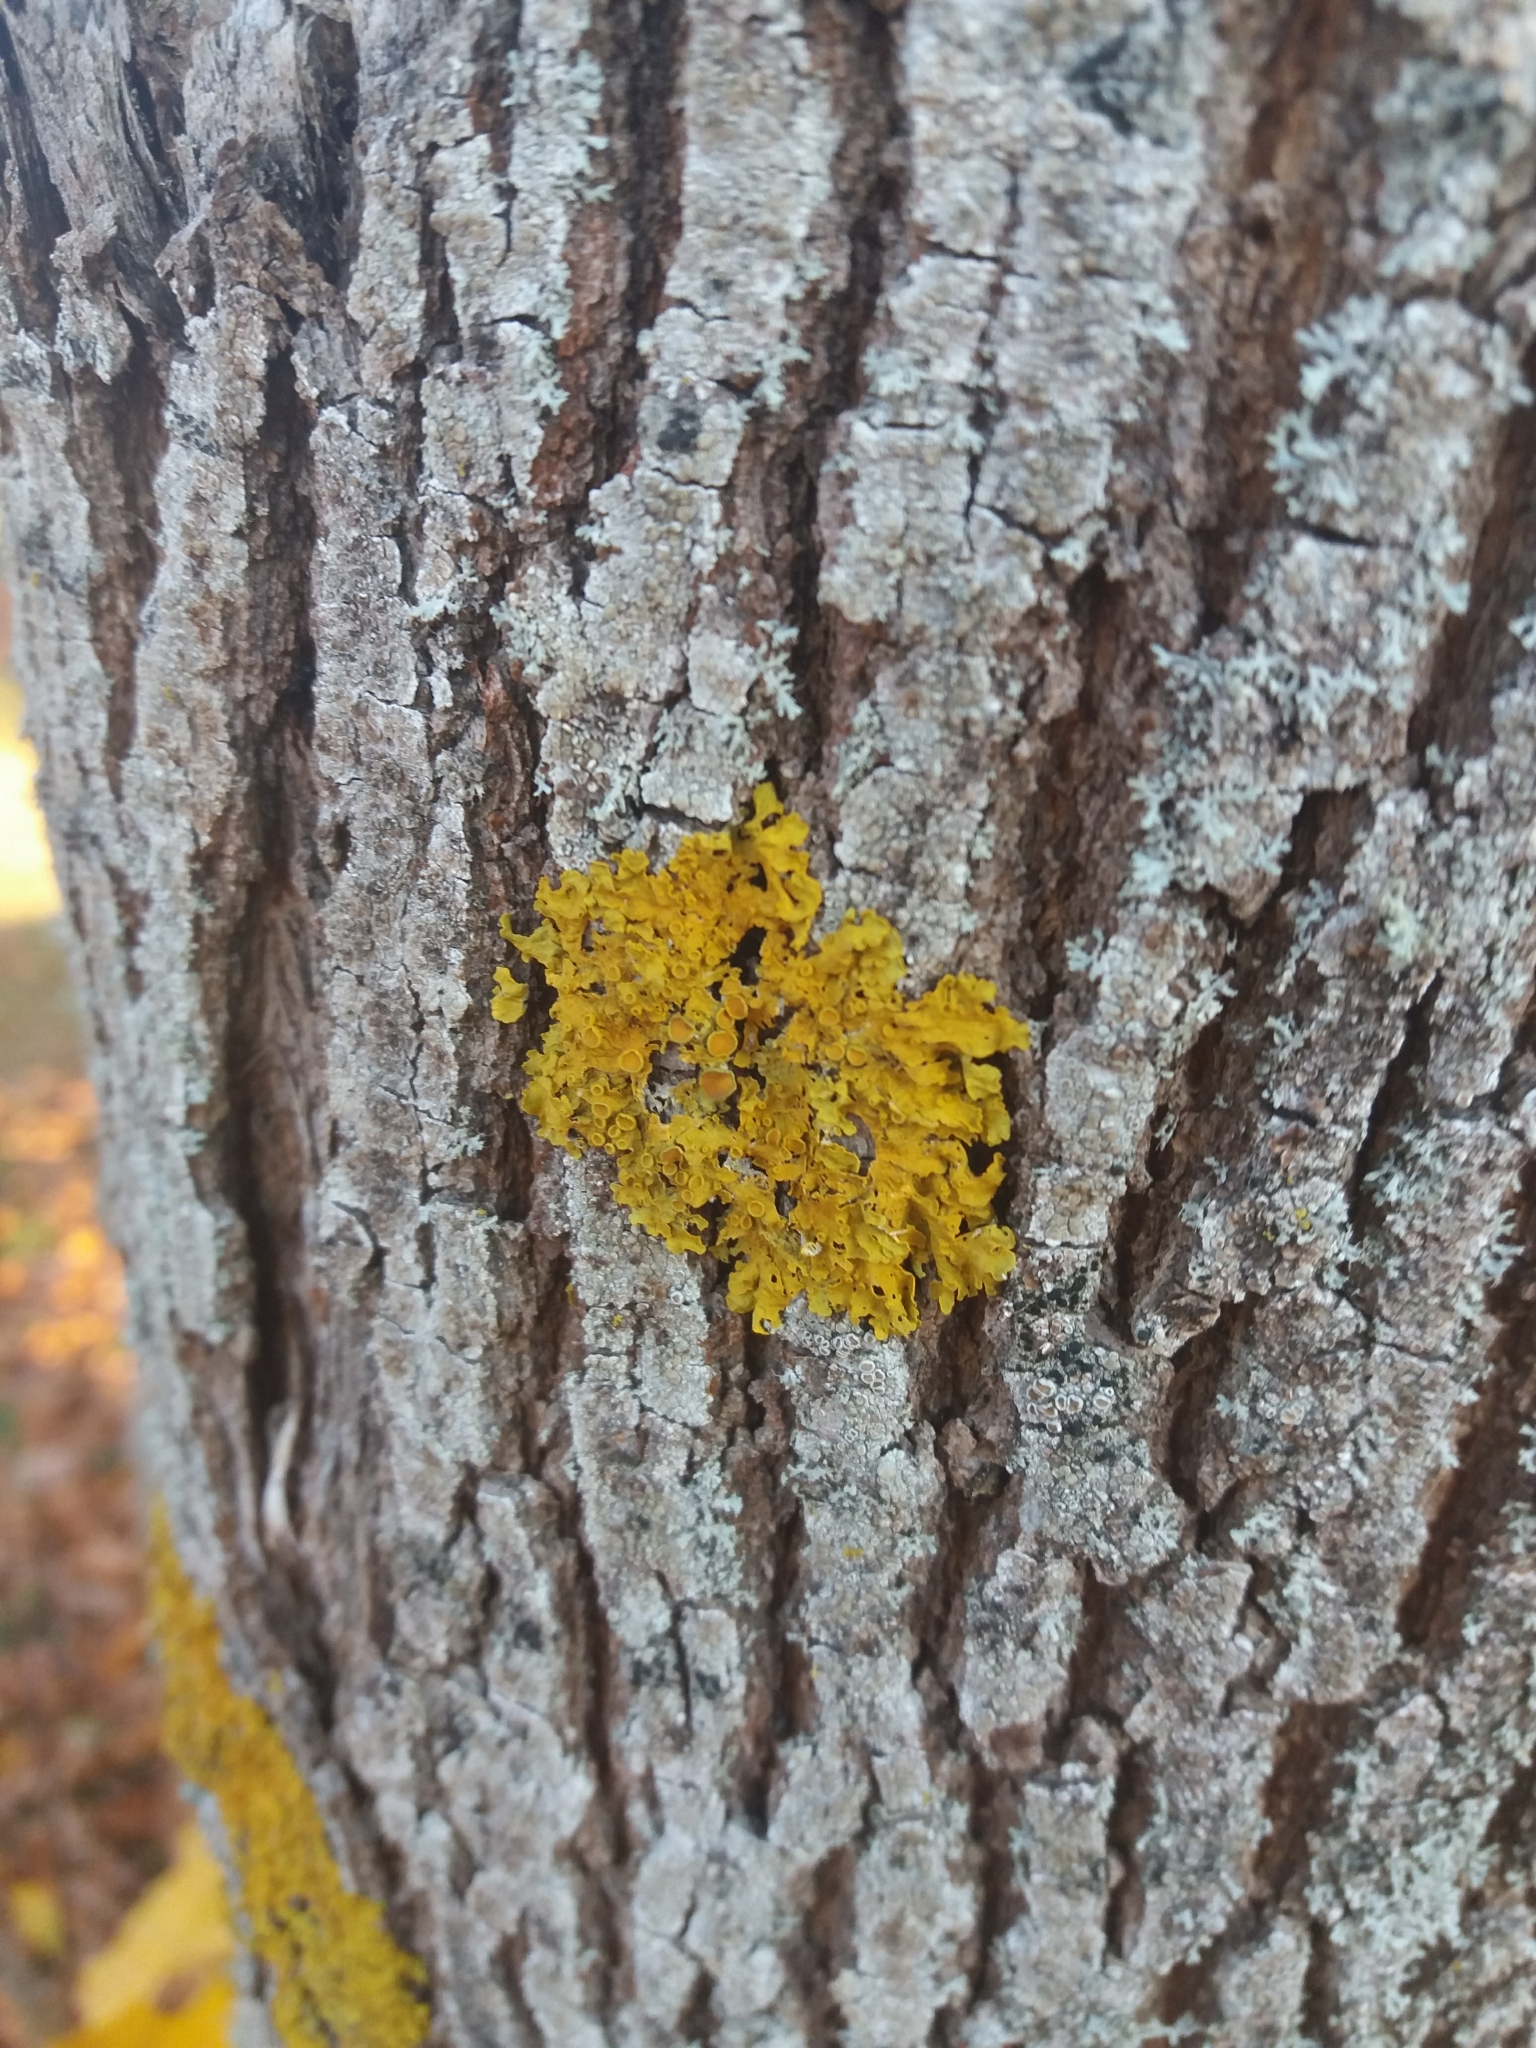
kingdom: Fungi
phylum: Ascomycota
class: Lecanoromycetes
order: Teloschistales
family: Teloschistaceae
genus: Xanthoria
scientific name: Xanthoria parietina
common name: Common orange lichen
